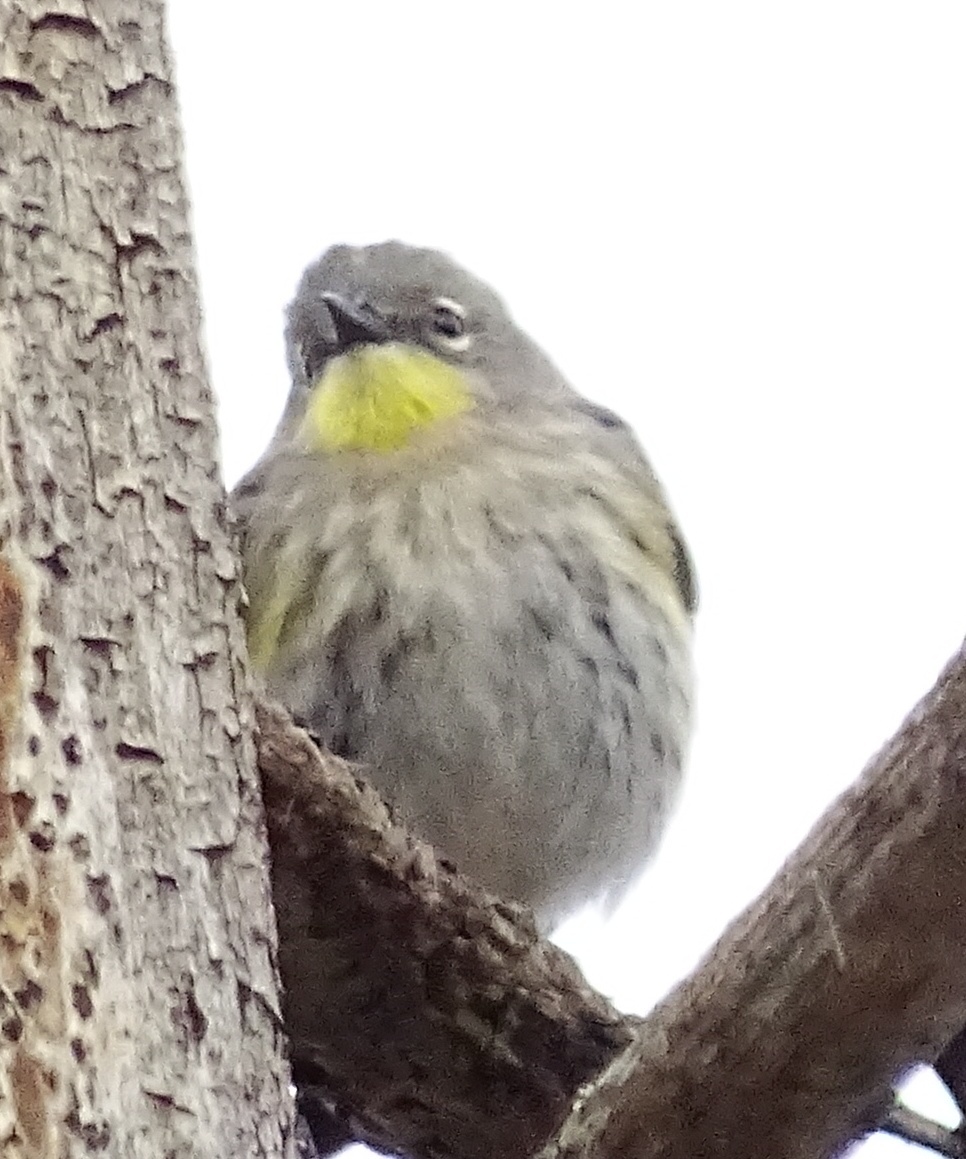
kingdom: Animalia
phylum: Chordata
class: Aves
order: Passeriformes
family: Parulidae
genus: Setophaga
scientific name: Setophaga coronata
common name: Myrtle warbler
